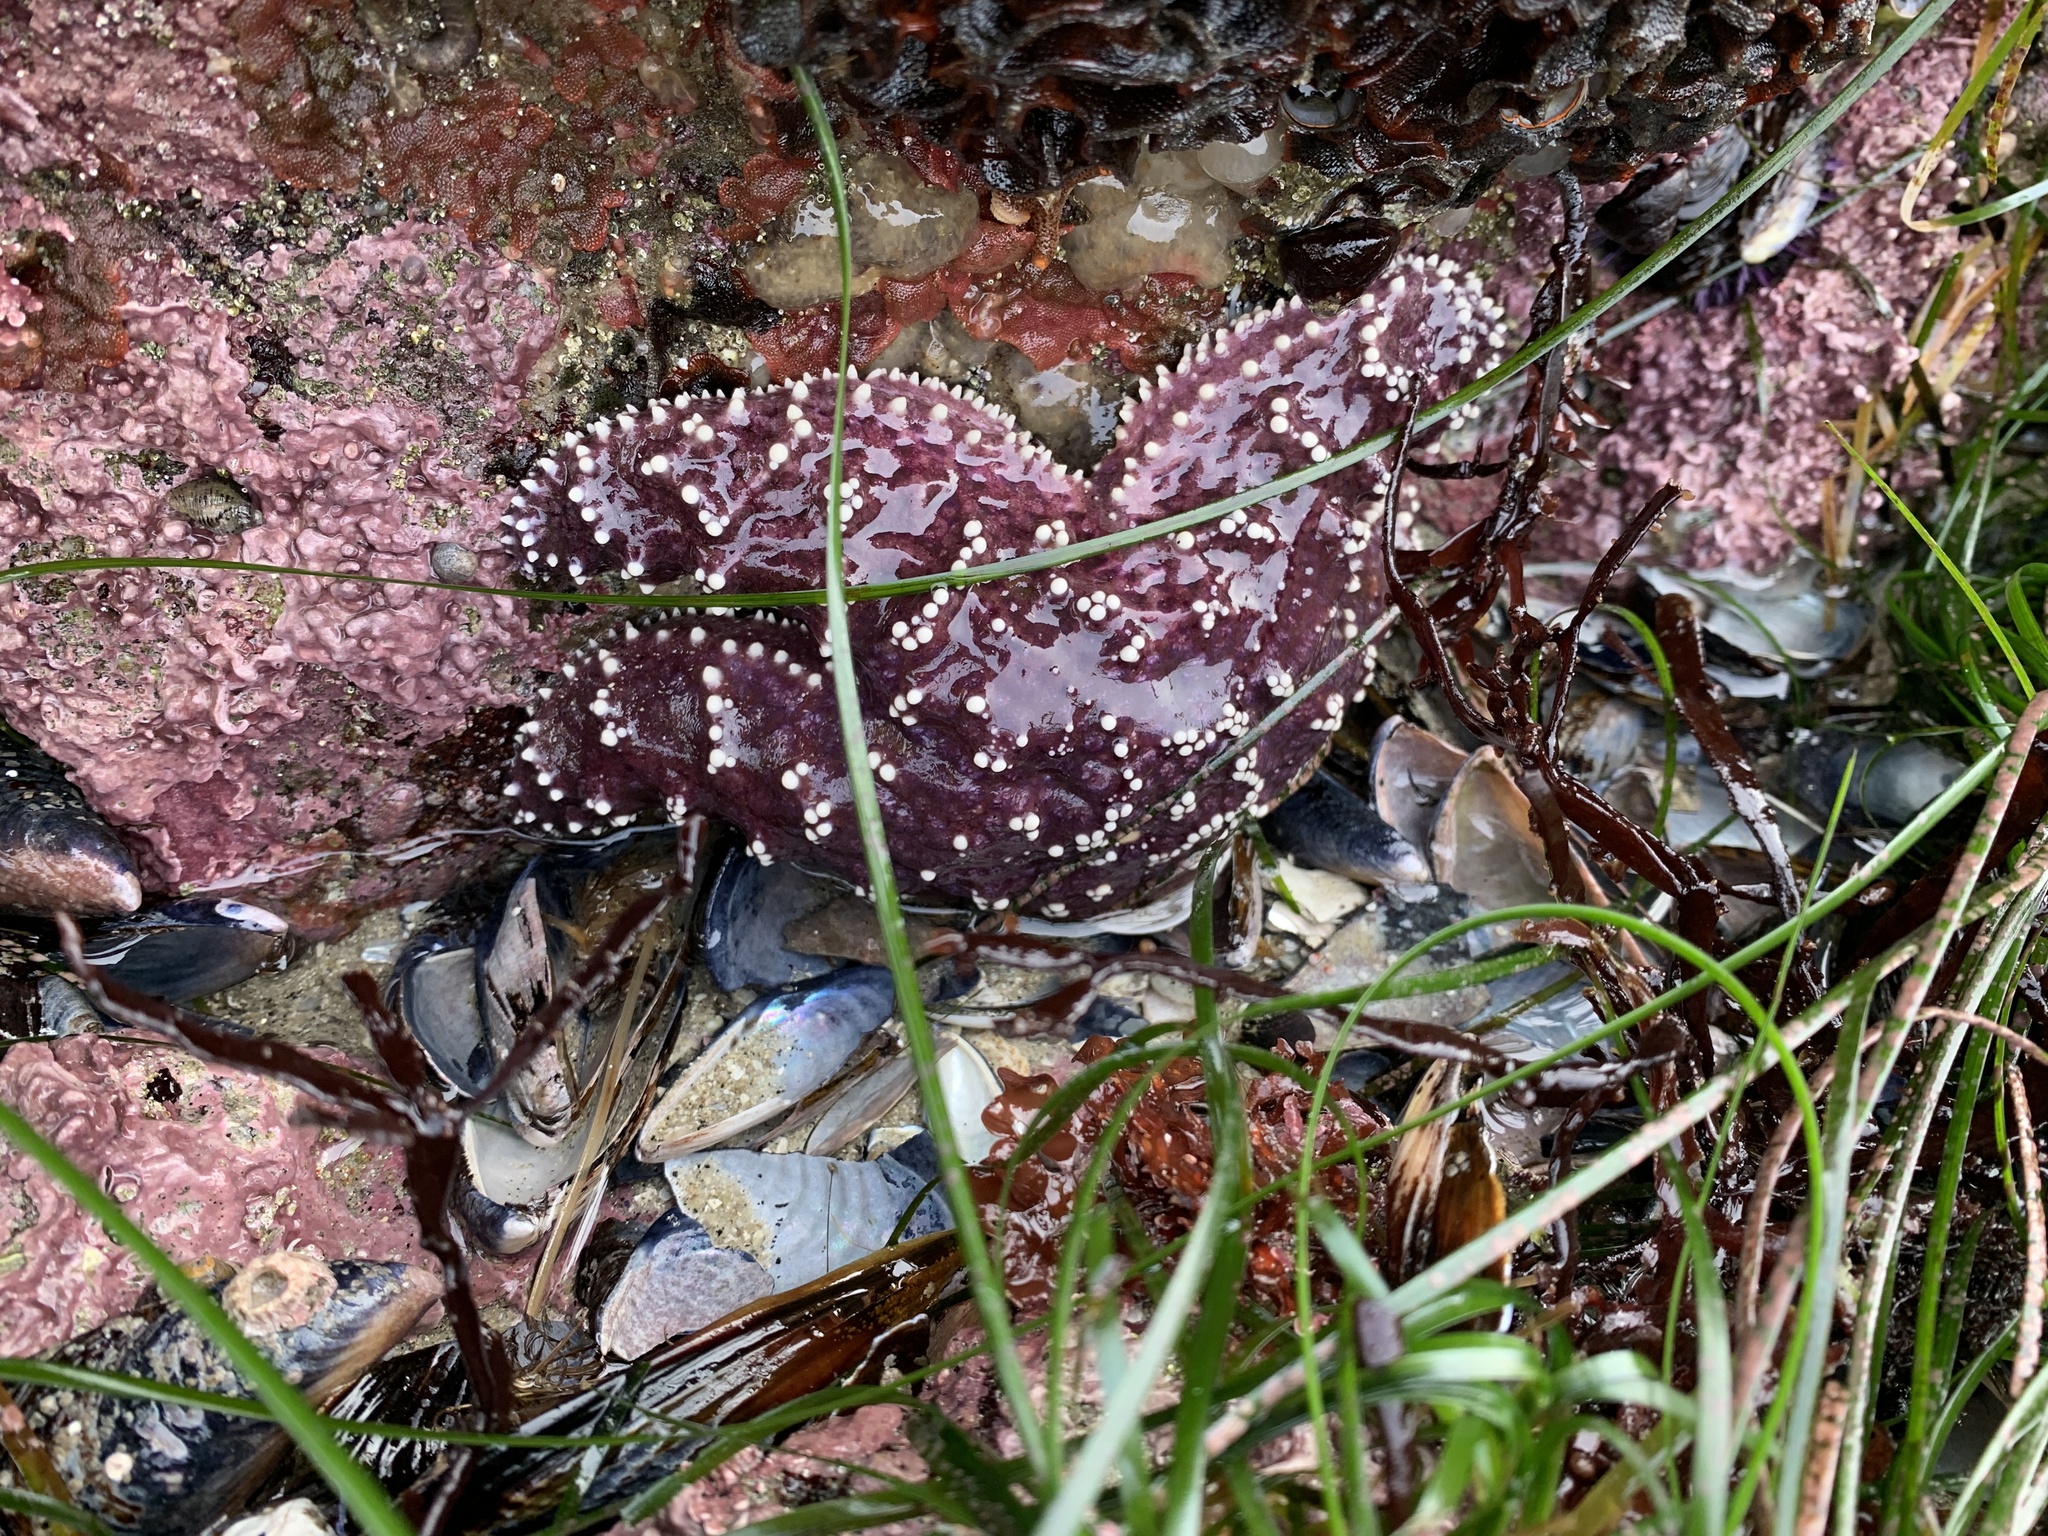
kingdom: Animalia
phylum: Echinodermata
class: Asteroidea
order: Forcipulatida
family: Asteriidae
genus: Pisaster
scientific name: Pisaster ochraceus
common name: Ochre stars
